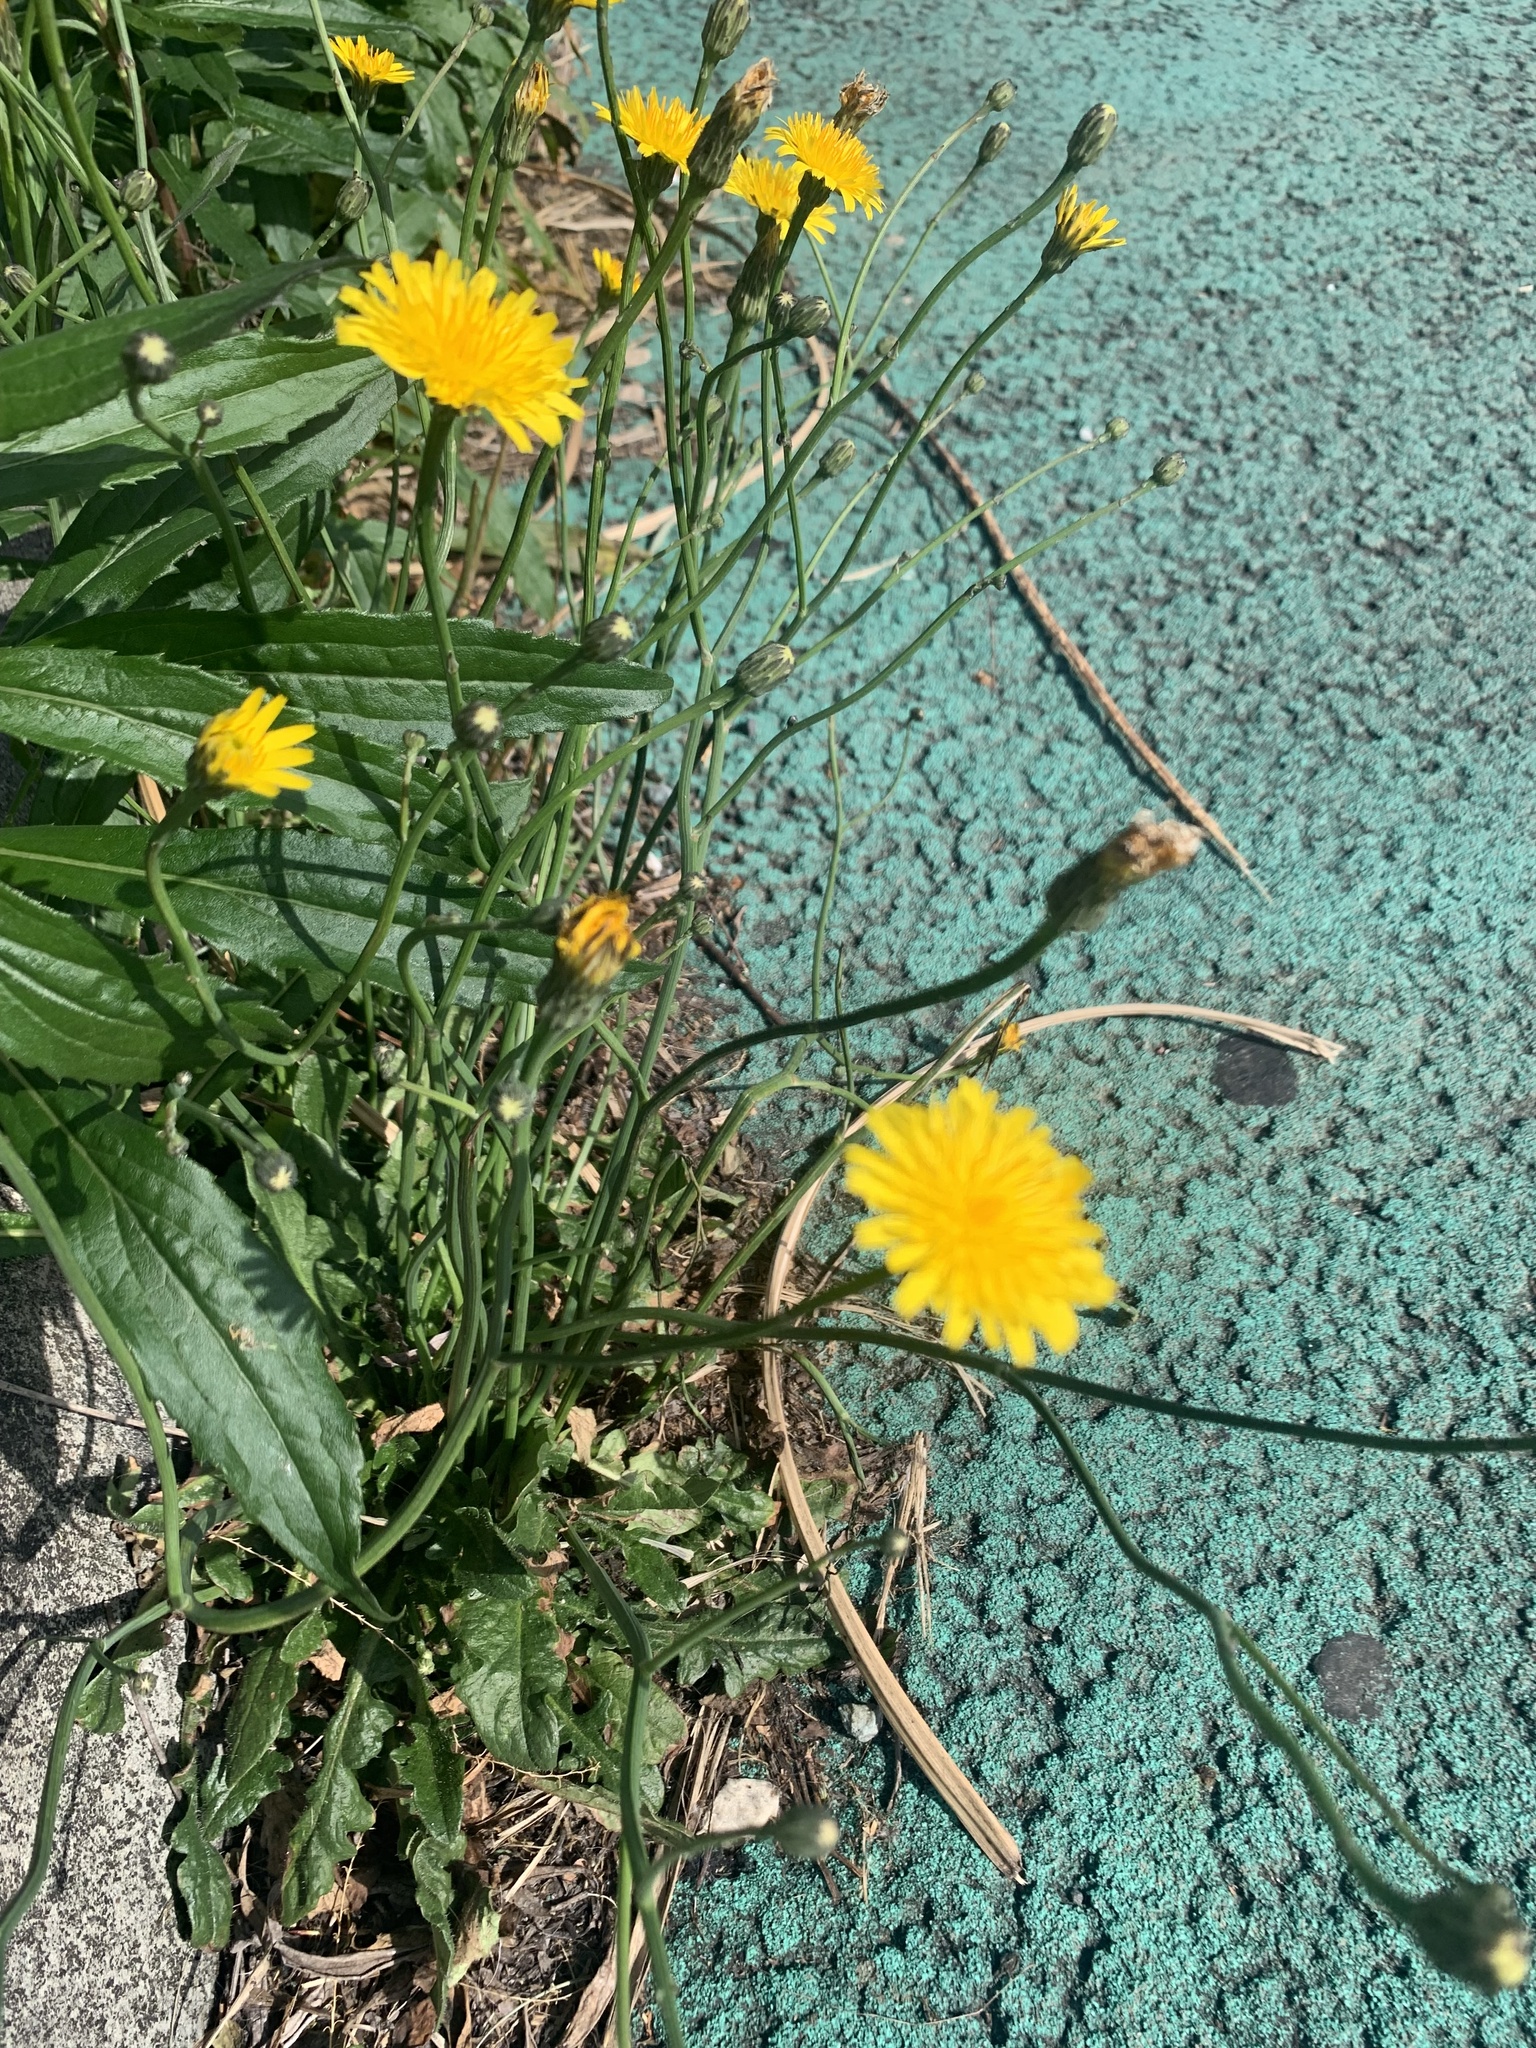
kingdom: Plantae
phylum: Tracheophyta
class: Magnoliopsida
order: Asterales
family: Asteraceae
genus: Hypochaeris
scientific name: Hypochaeris radicata
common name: Flatweed
